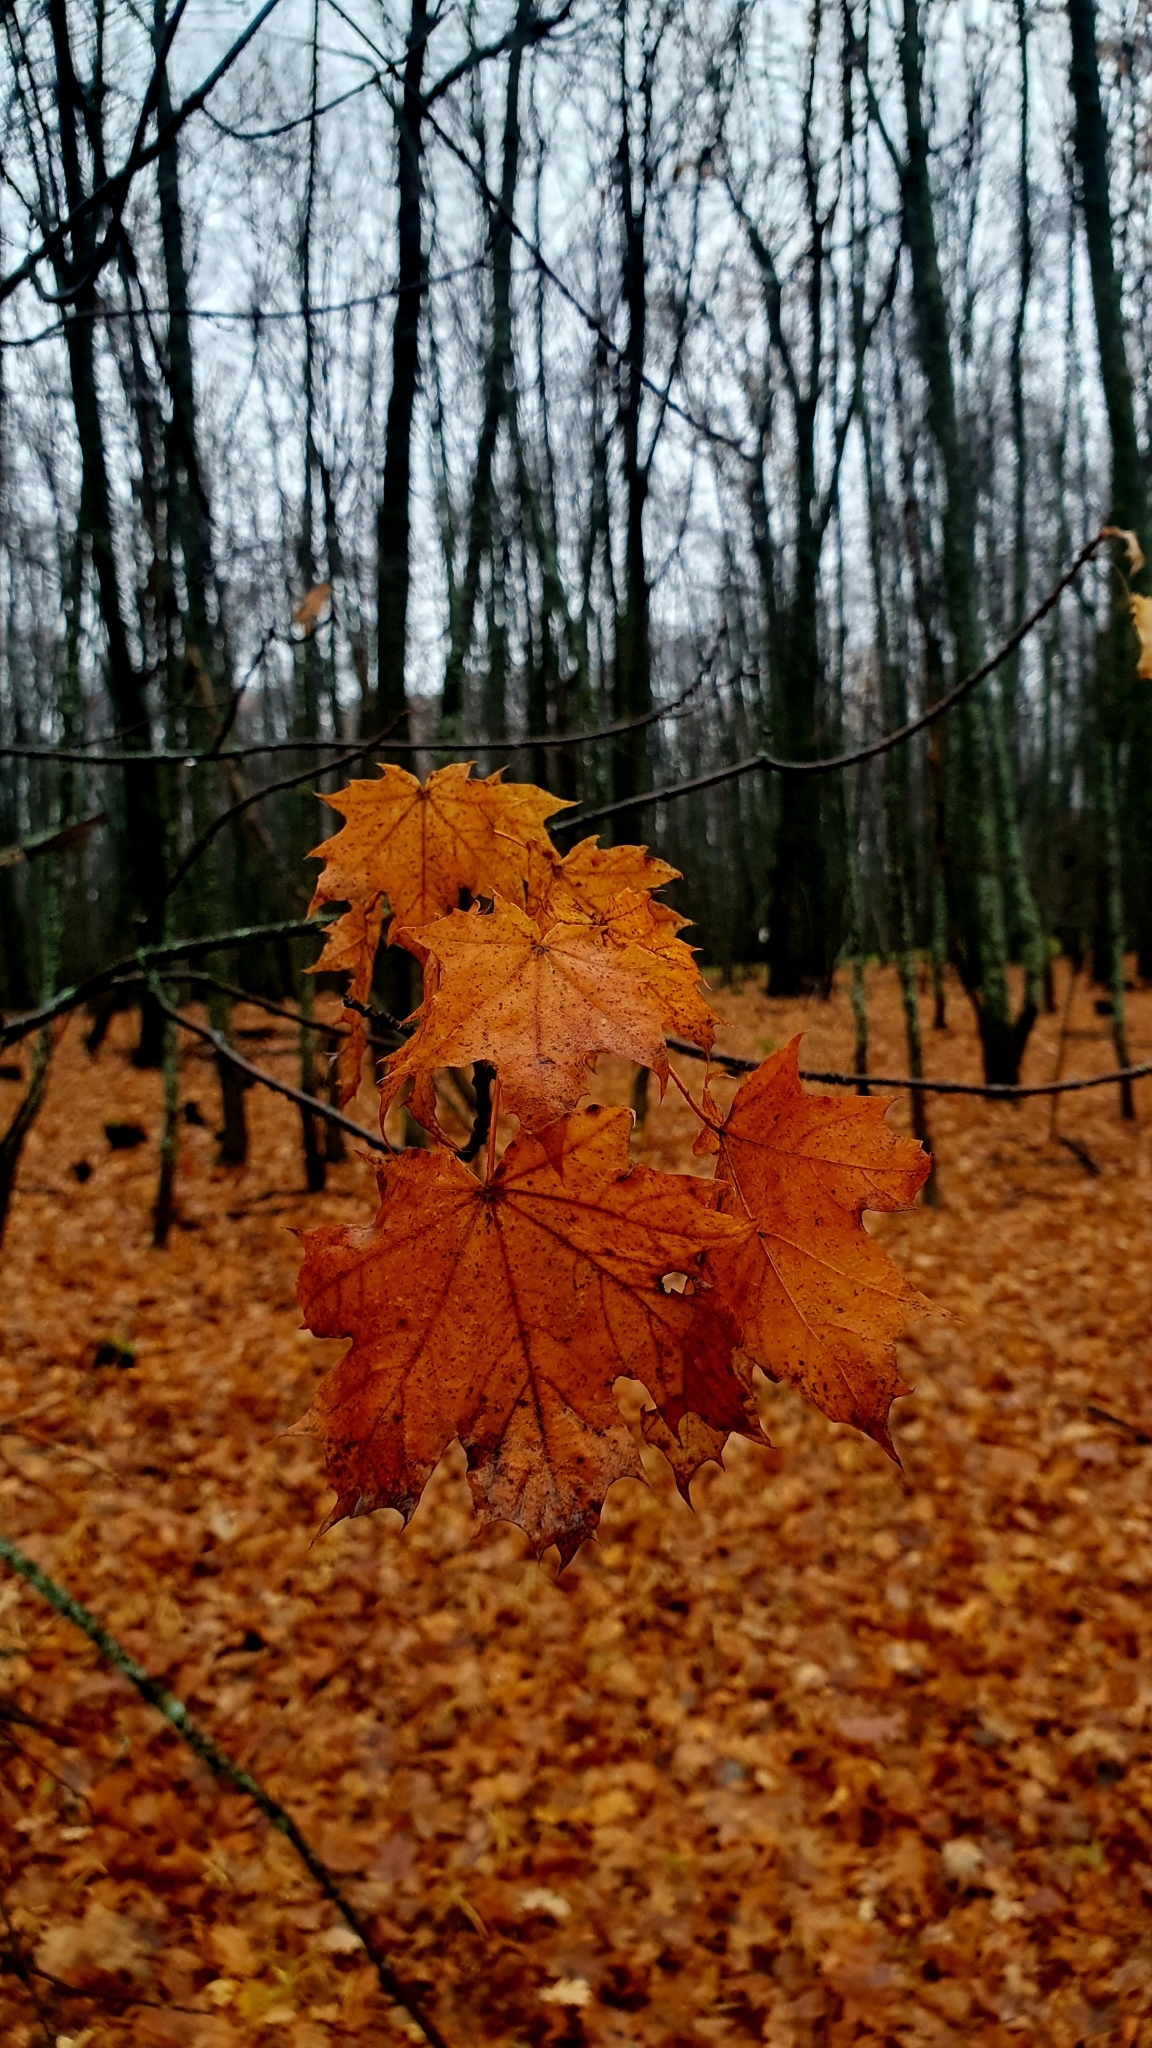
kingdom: Plantae
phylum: Tracheophyta
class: Magnoliopsida
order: Sapindales
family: Sapindaceae
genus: Acer
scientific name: Acer platanoides
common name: Norway maple
